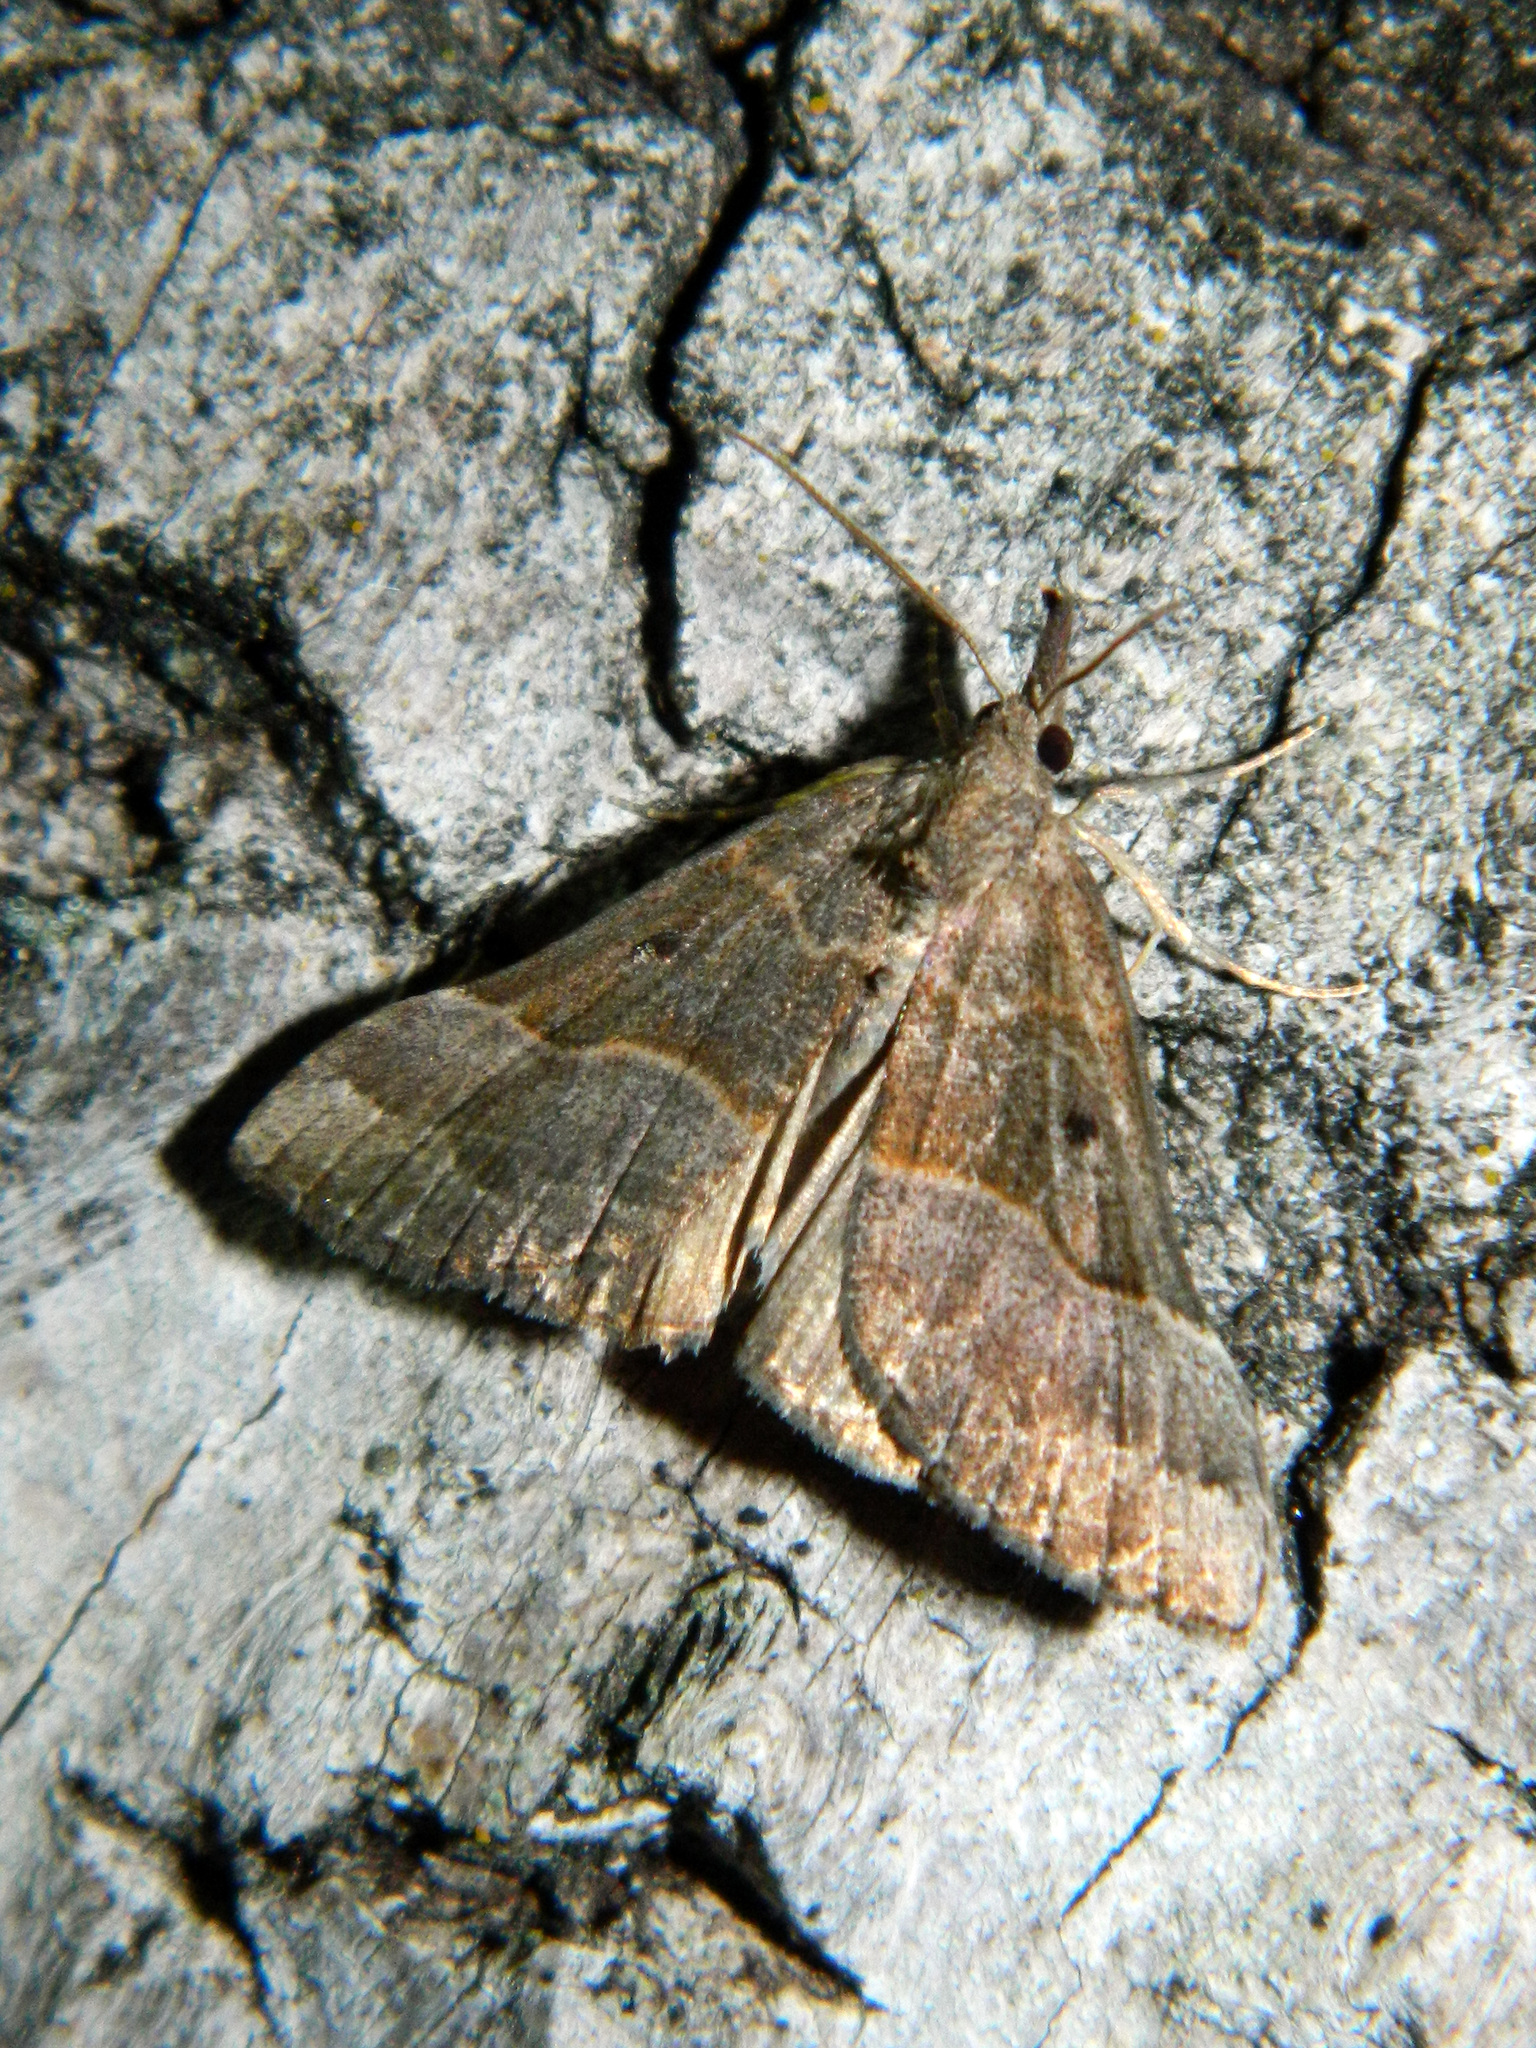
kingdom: Animalia
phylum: Arthropoda
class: Insecta
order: Lepidoptera
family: Erebidae
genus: Hypena
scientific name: Hypena eductalis
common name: Red-footed snout
